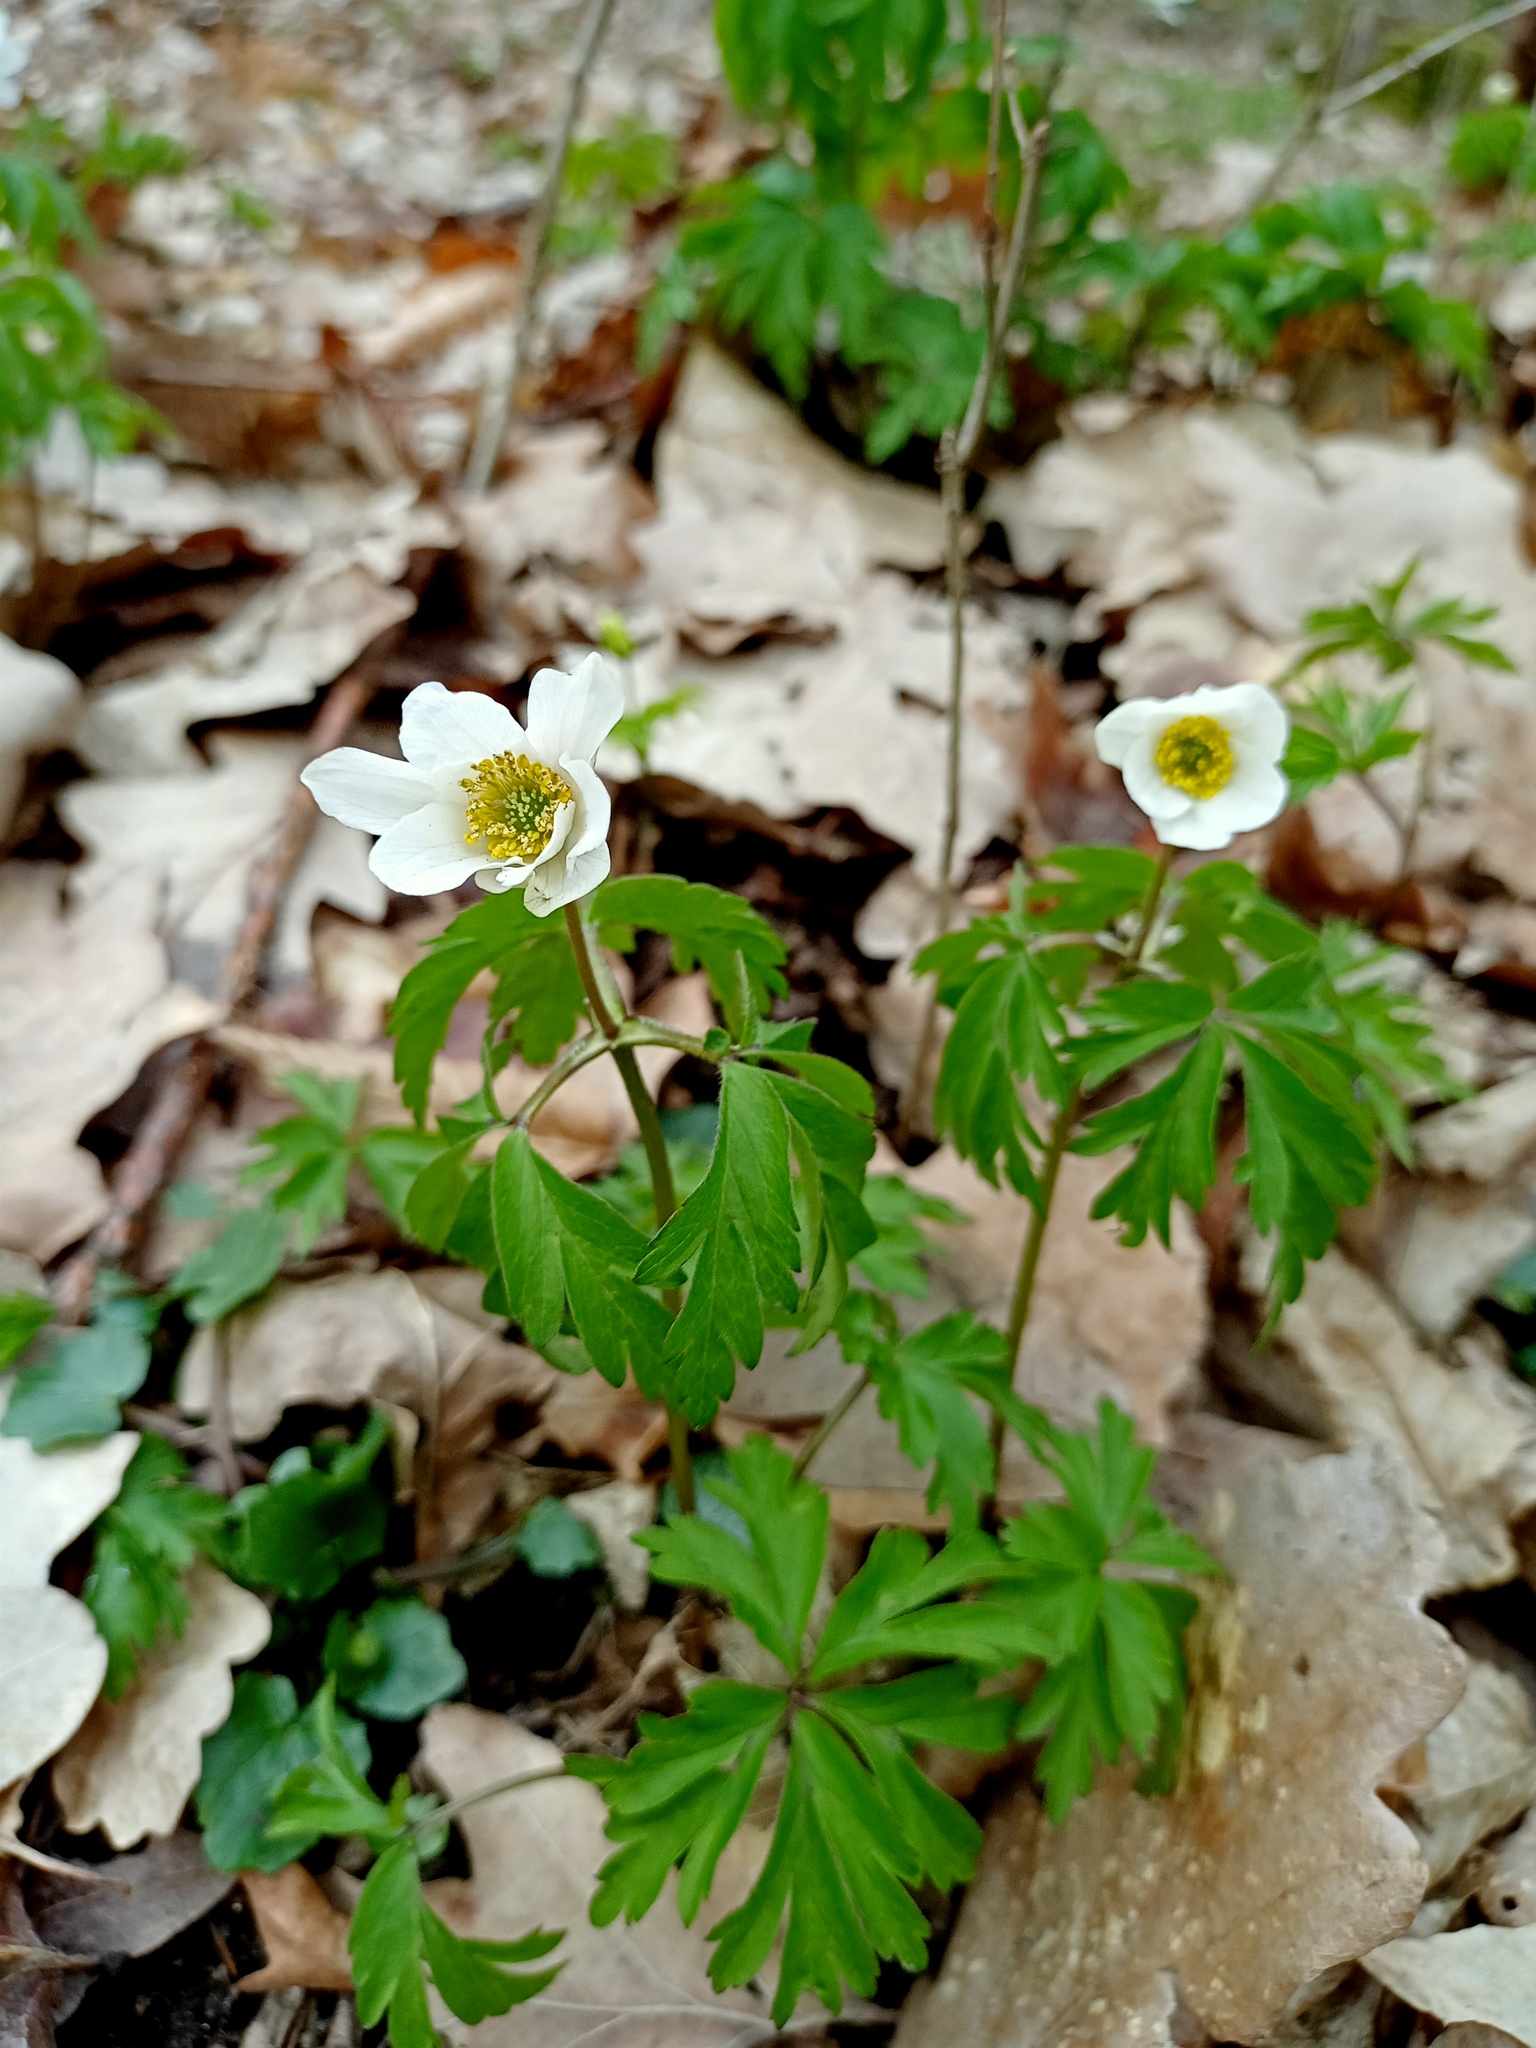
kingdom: Plantae
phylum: Tracheophyta
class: Magnoliopsida
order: Ranunculales
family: Ranunculaceae
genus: Anemone
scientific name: Anemone nemorosa
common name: Wood anemone
